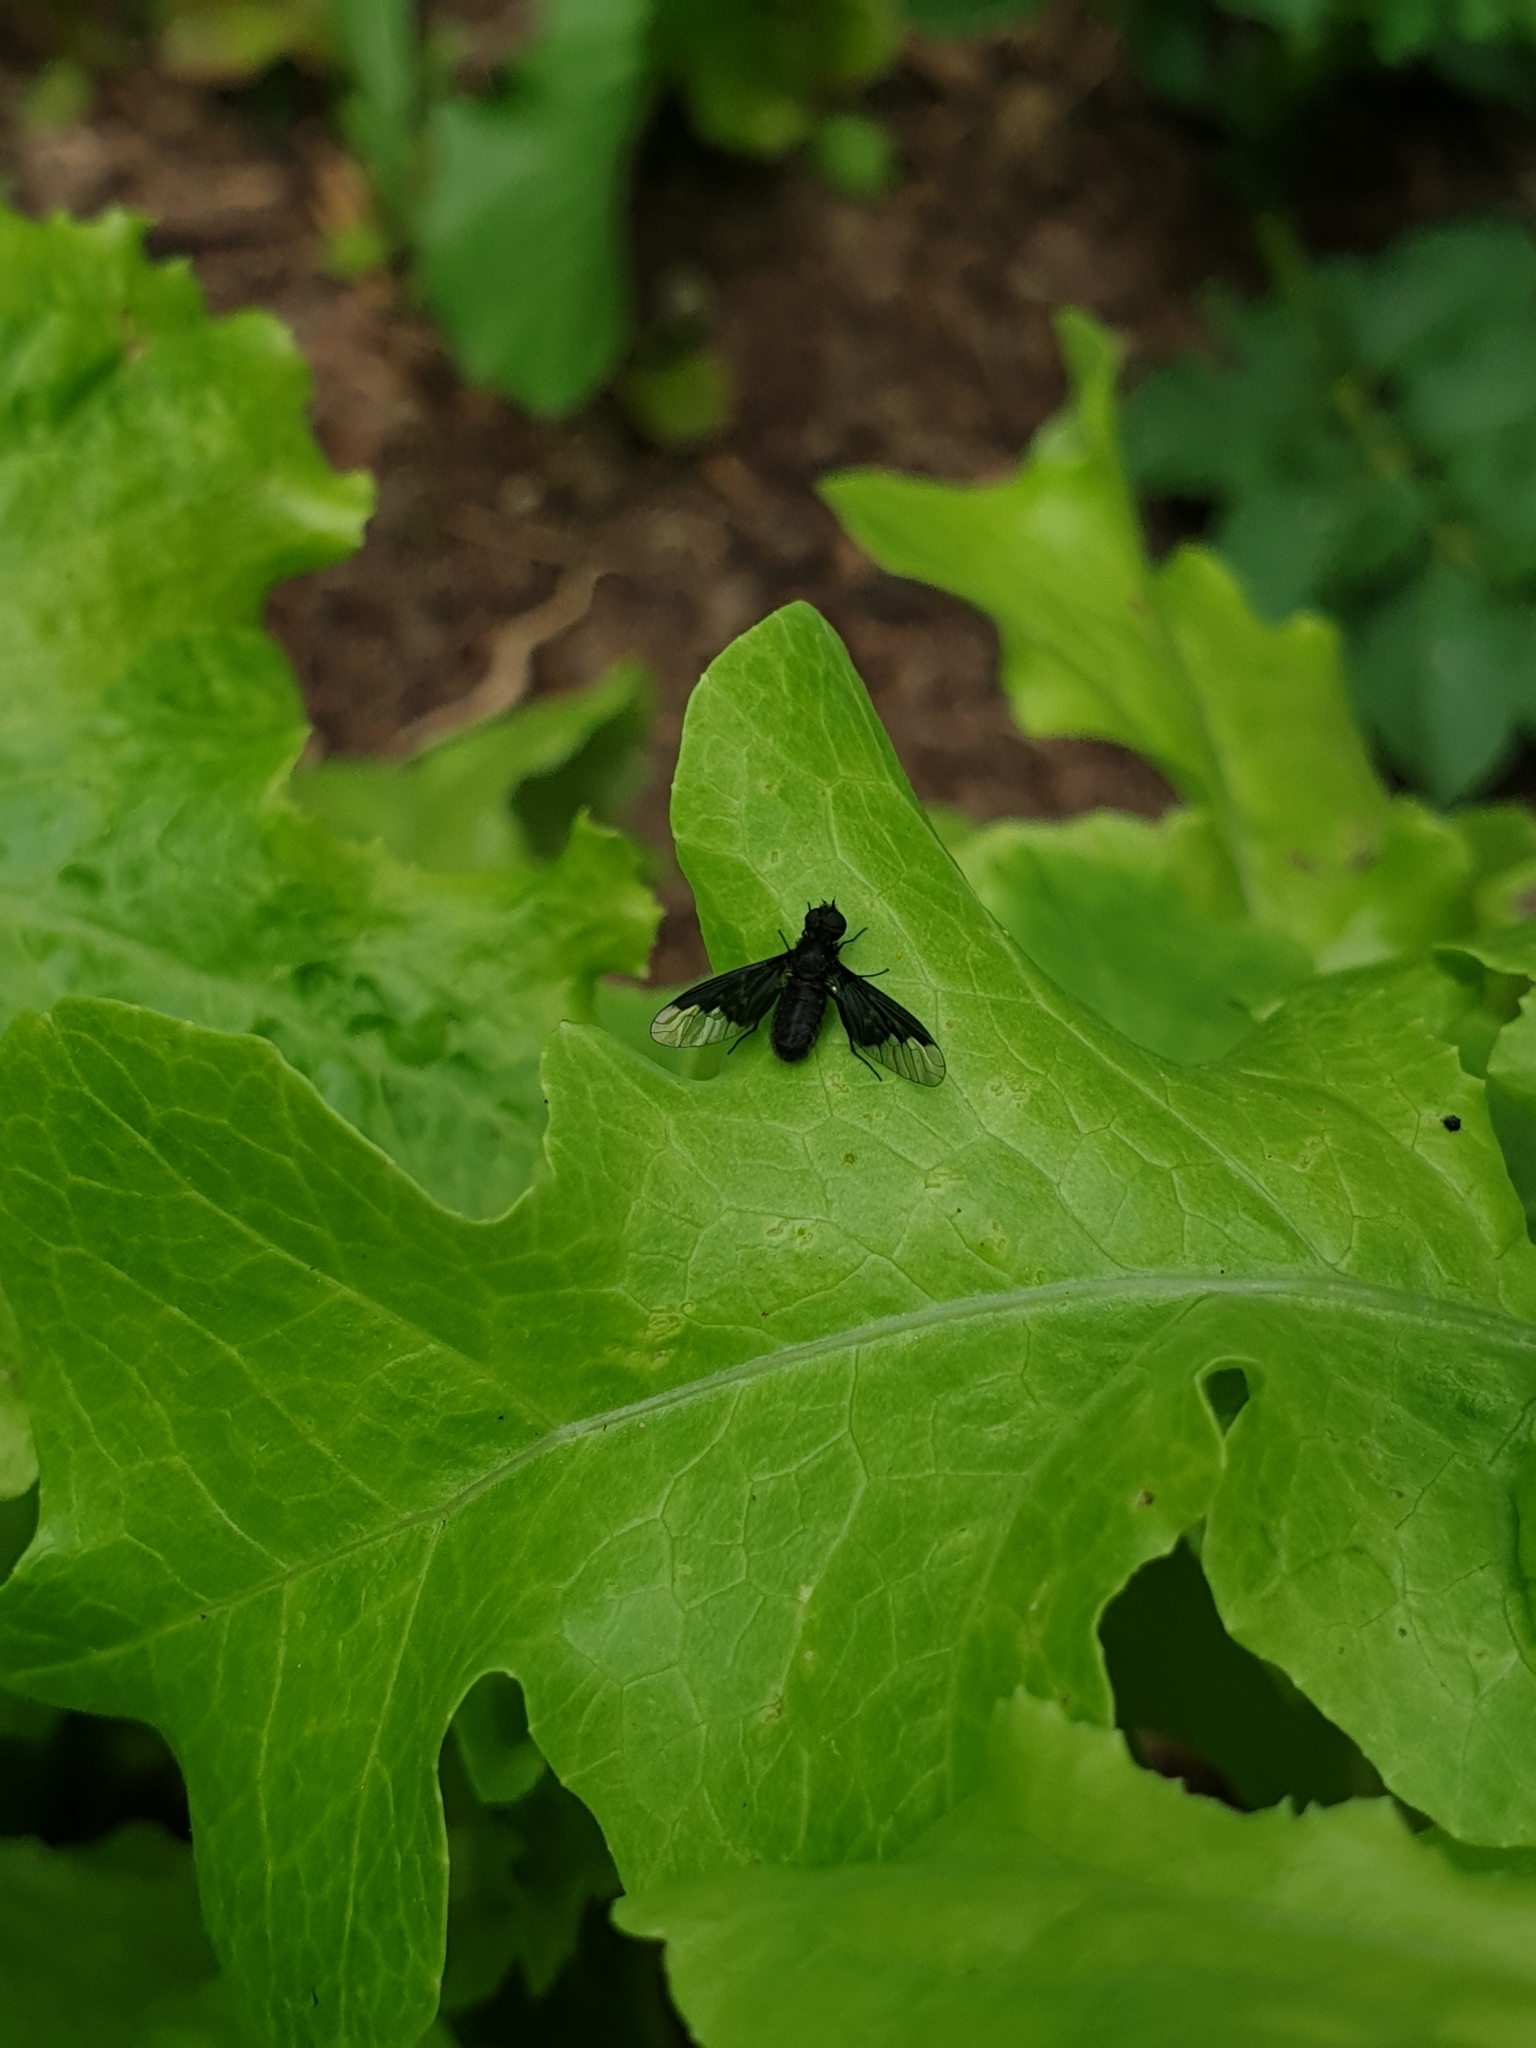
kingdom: Animalia
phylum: Arthropoda
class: Insecta
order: Diptera
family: Bombyliidae
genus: Hemipenthes
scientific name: Hemipenthes morio
